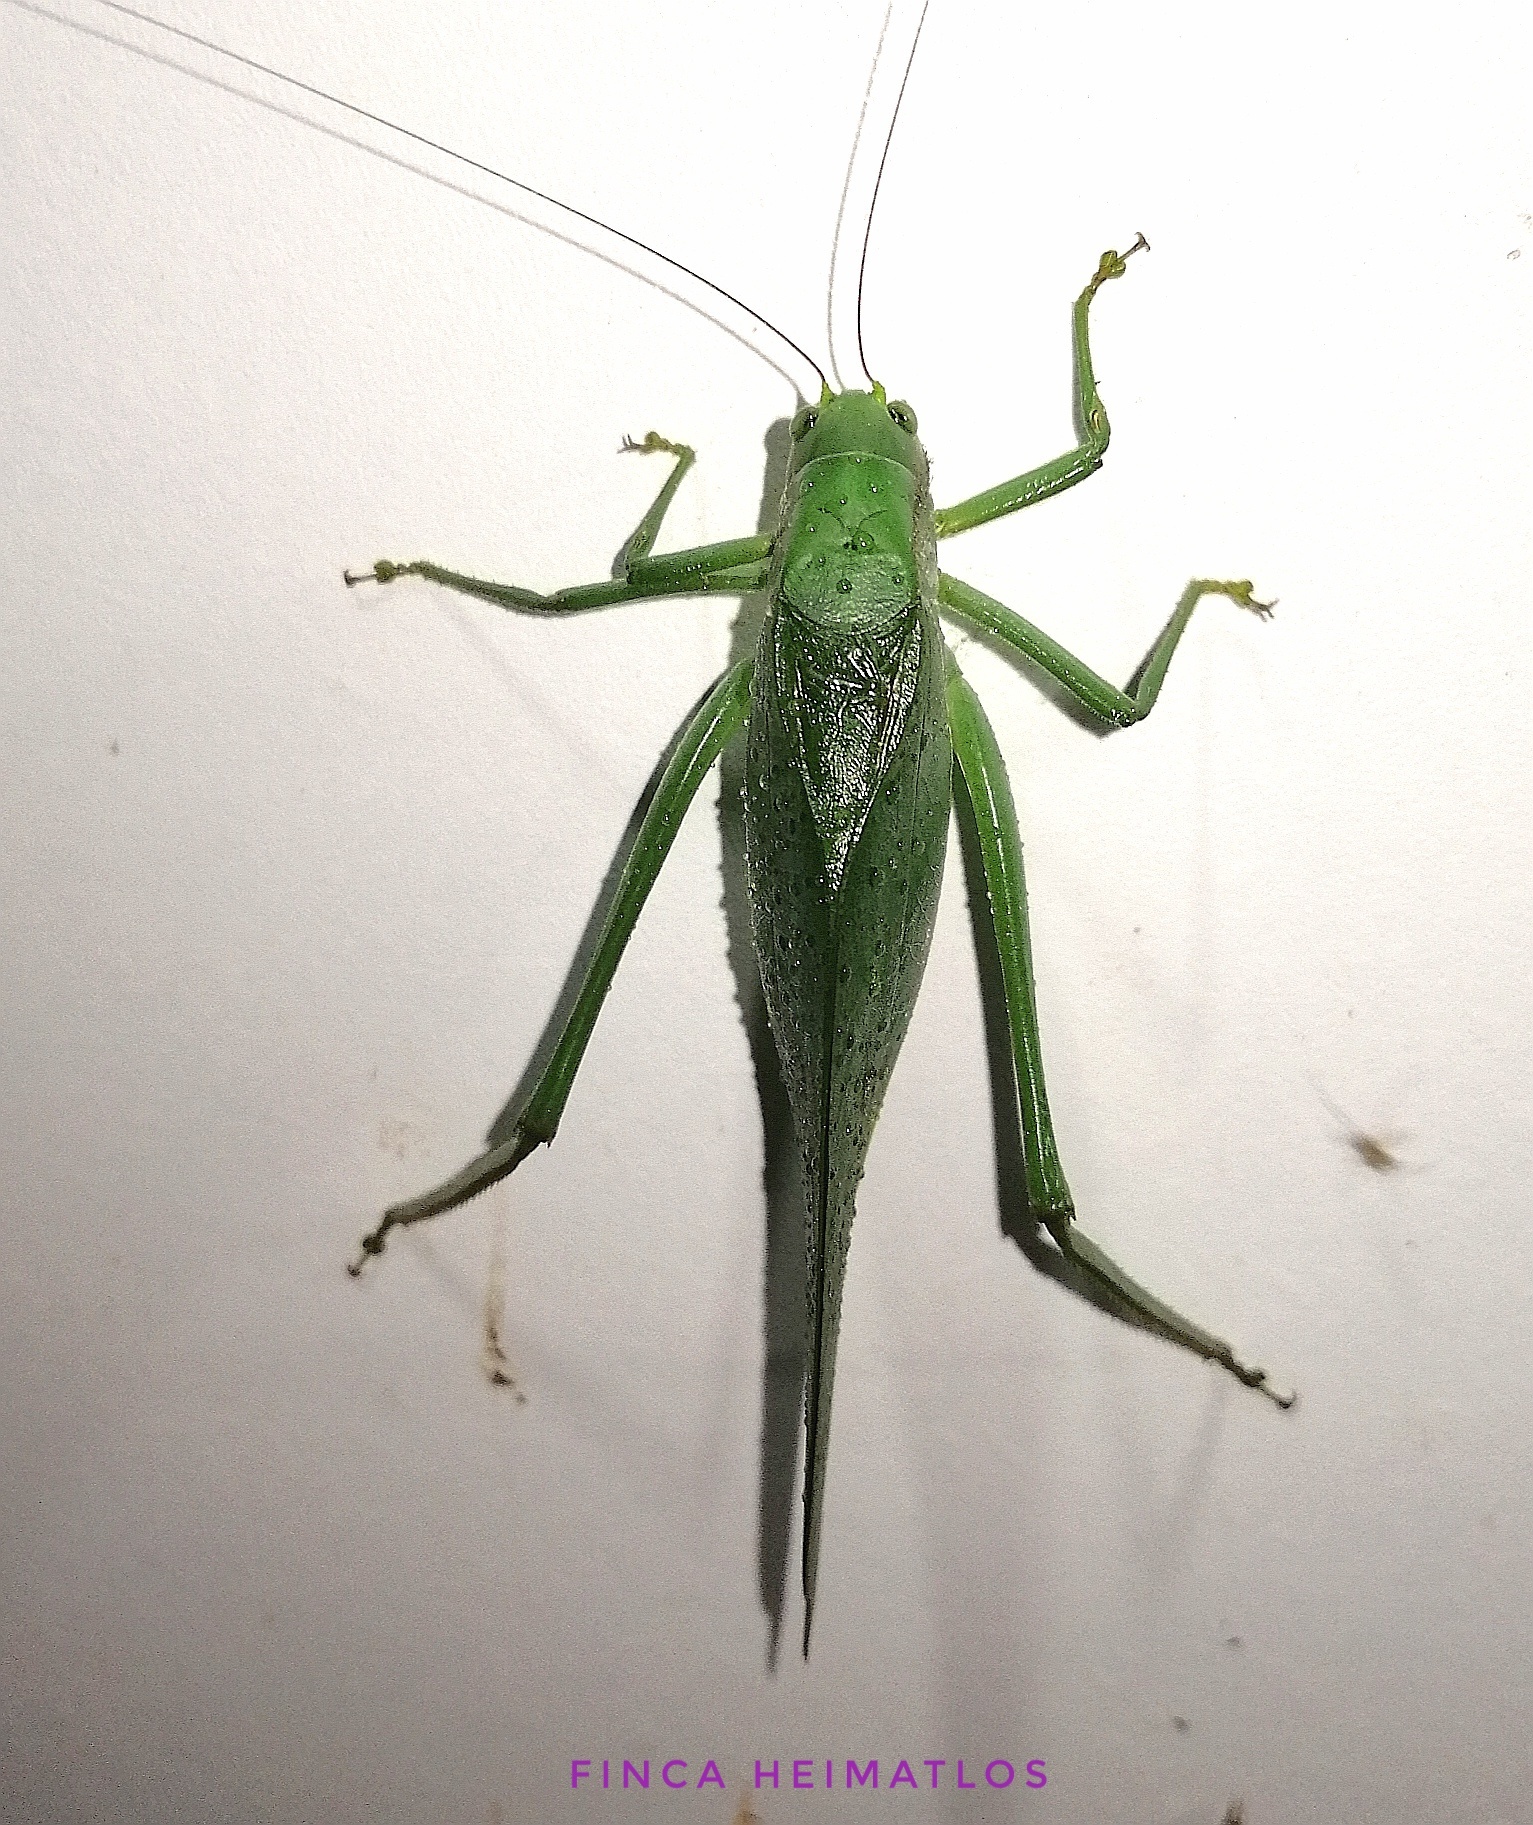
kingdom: Animalia
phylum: Arthropoda
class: Insecta
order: Orthoptera
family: Tettigoniidae
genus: Philophyllia
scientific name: Philophyllia ingens
